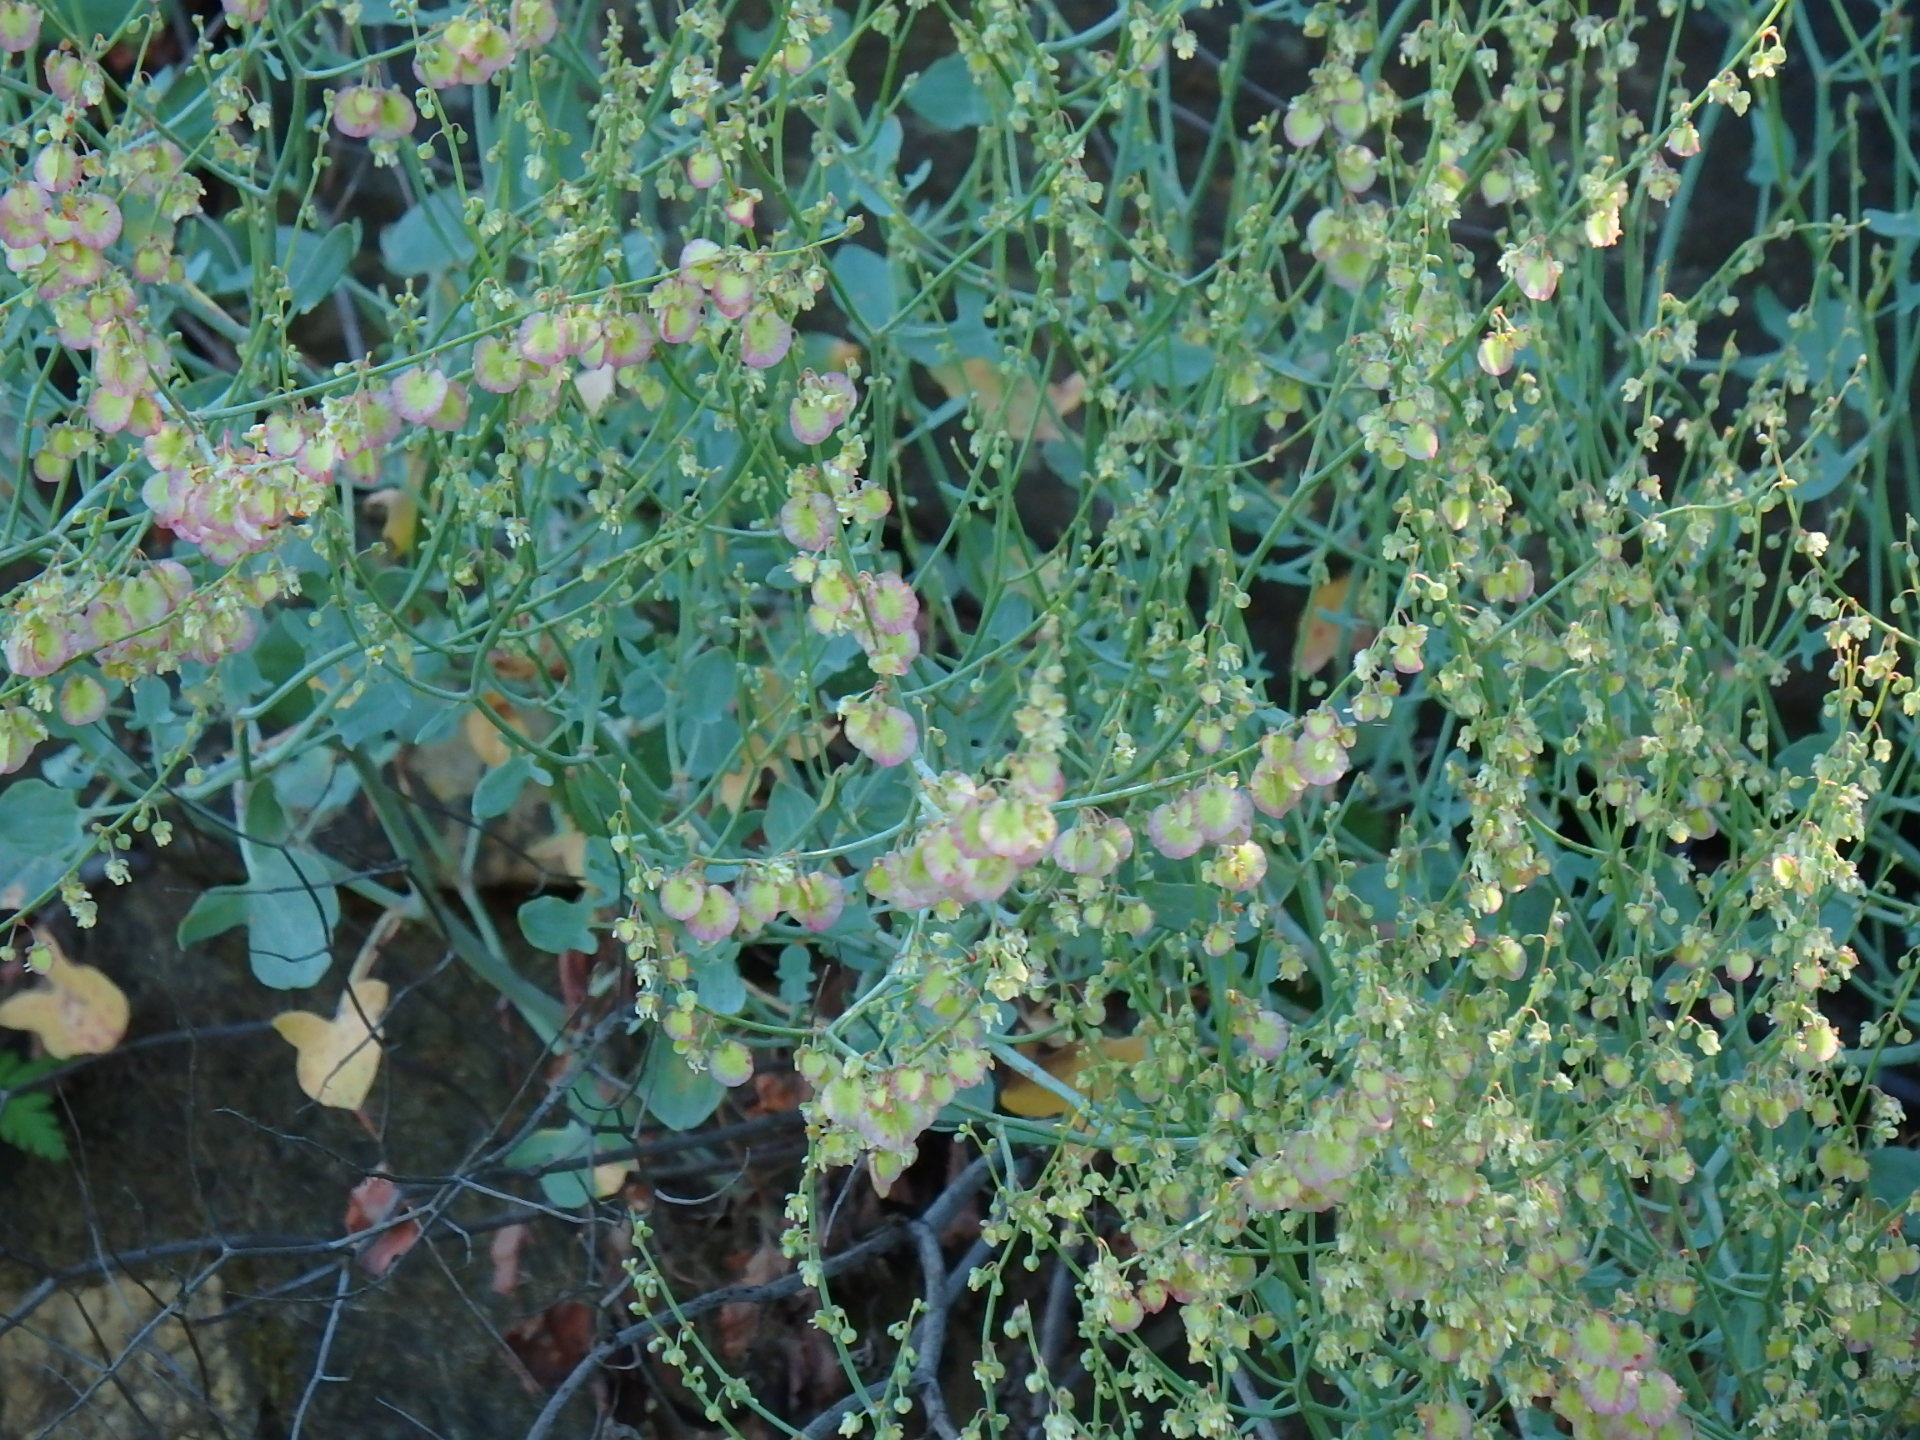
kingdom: Plantae
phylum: Tracheophyta
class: Magnoliopsida
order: Caryophyllales
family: Polygonaceae
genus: Rumex
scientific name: Rumex induratus
